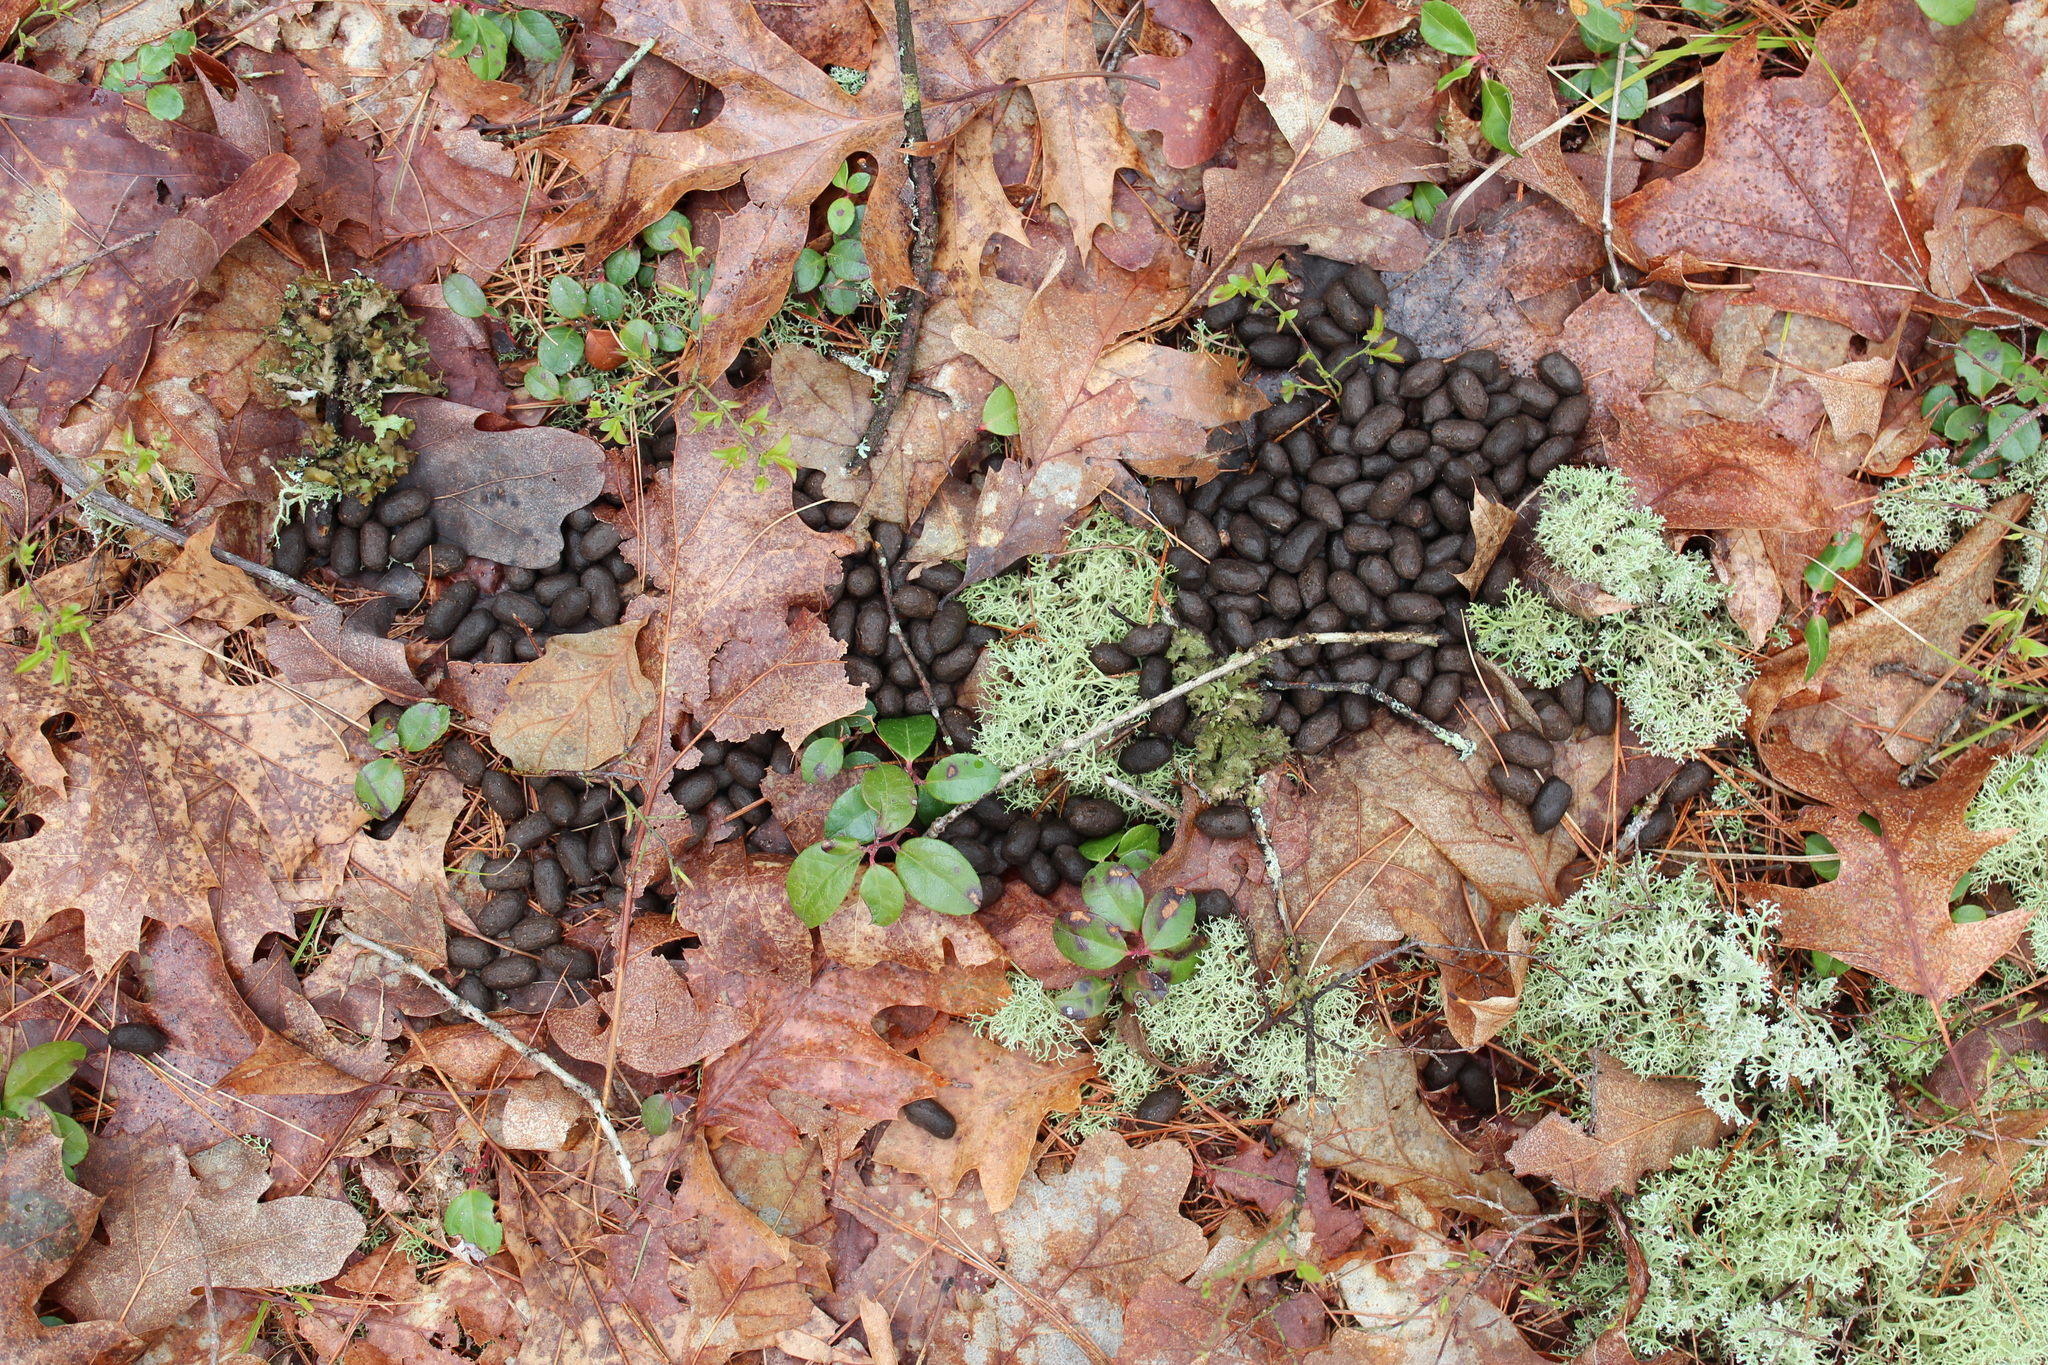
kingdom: Animalia
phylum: Chordata
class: Mammalia
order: Artiodactyla
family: Cervidae
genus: Odocoileus
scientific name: Odocoileus virginianus
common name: White-tailed deer
